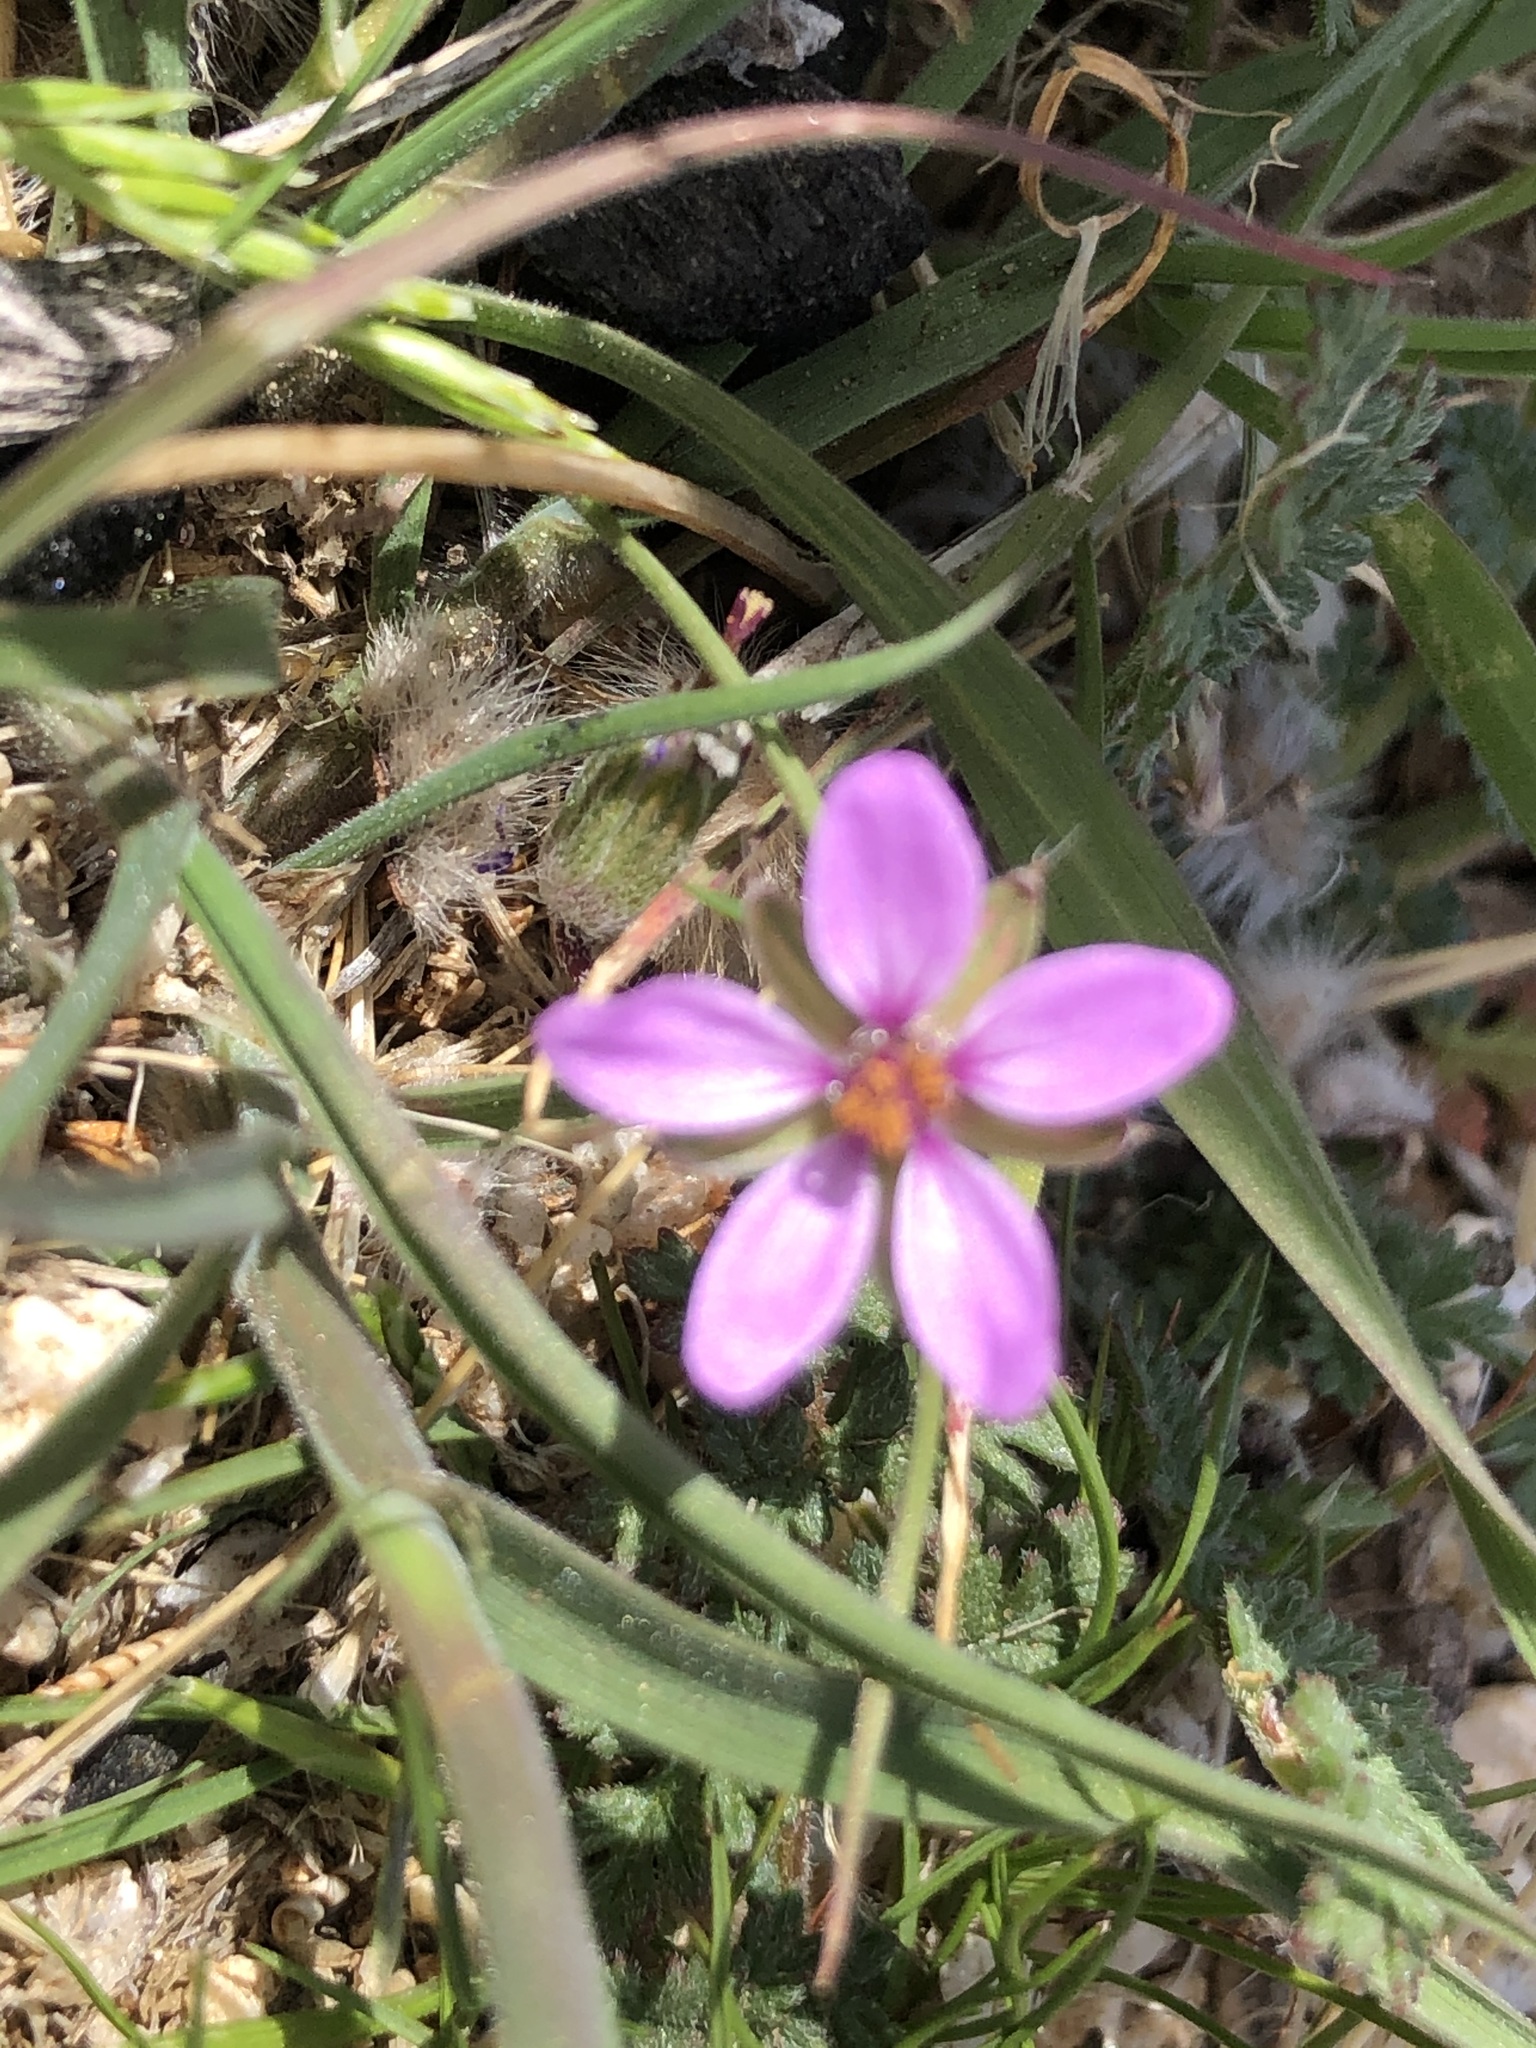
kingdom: Plantae
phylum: Tracheophyta
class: Magnoliopsida
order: Geraniales
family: Geraniaceae
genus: Erodium
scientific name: Erodium cicutarium
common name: Common stork's-bill
